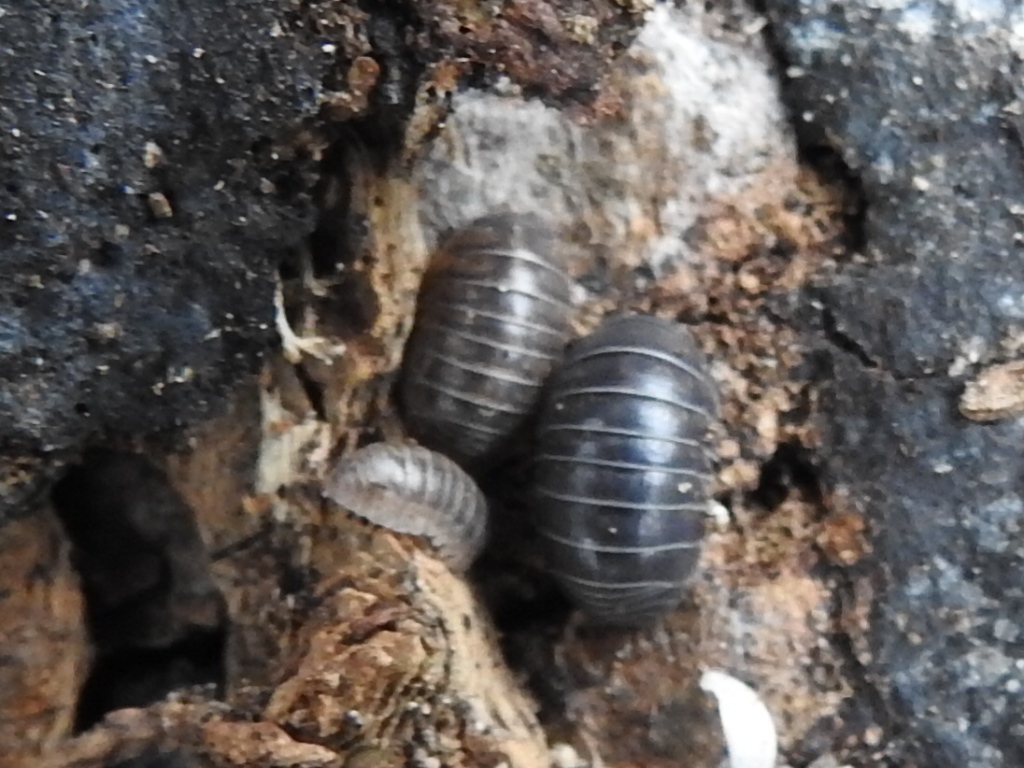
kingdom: Animalia
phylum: Arthropoda
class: Malacostraca
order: Isopoda
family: Armadillidiidae
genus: Armadillidium
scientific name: Armadillidium vulgare
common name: Common pill woodlouse
